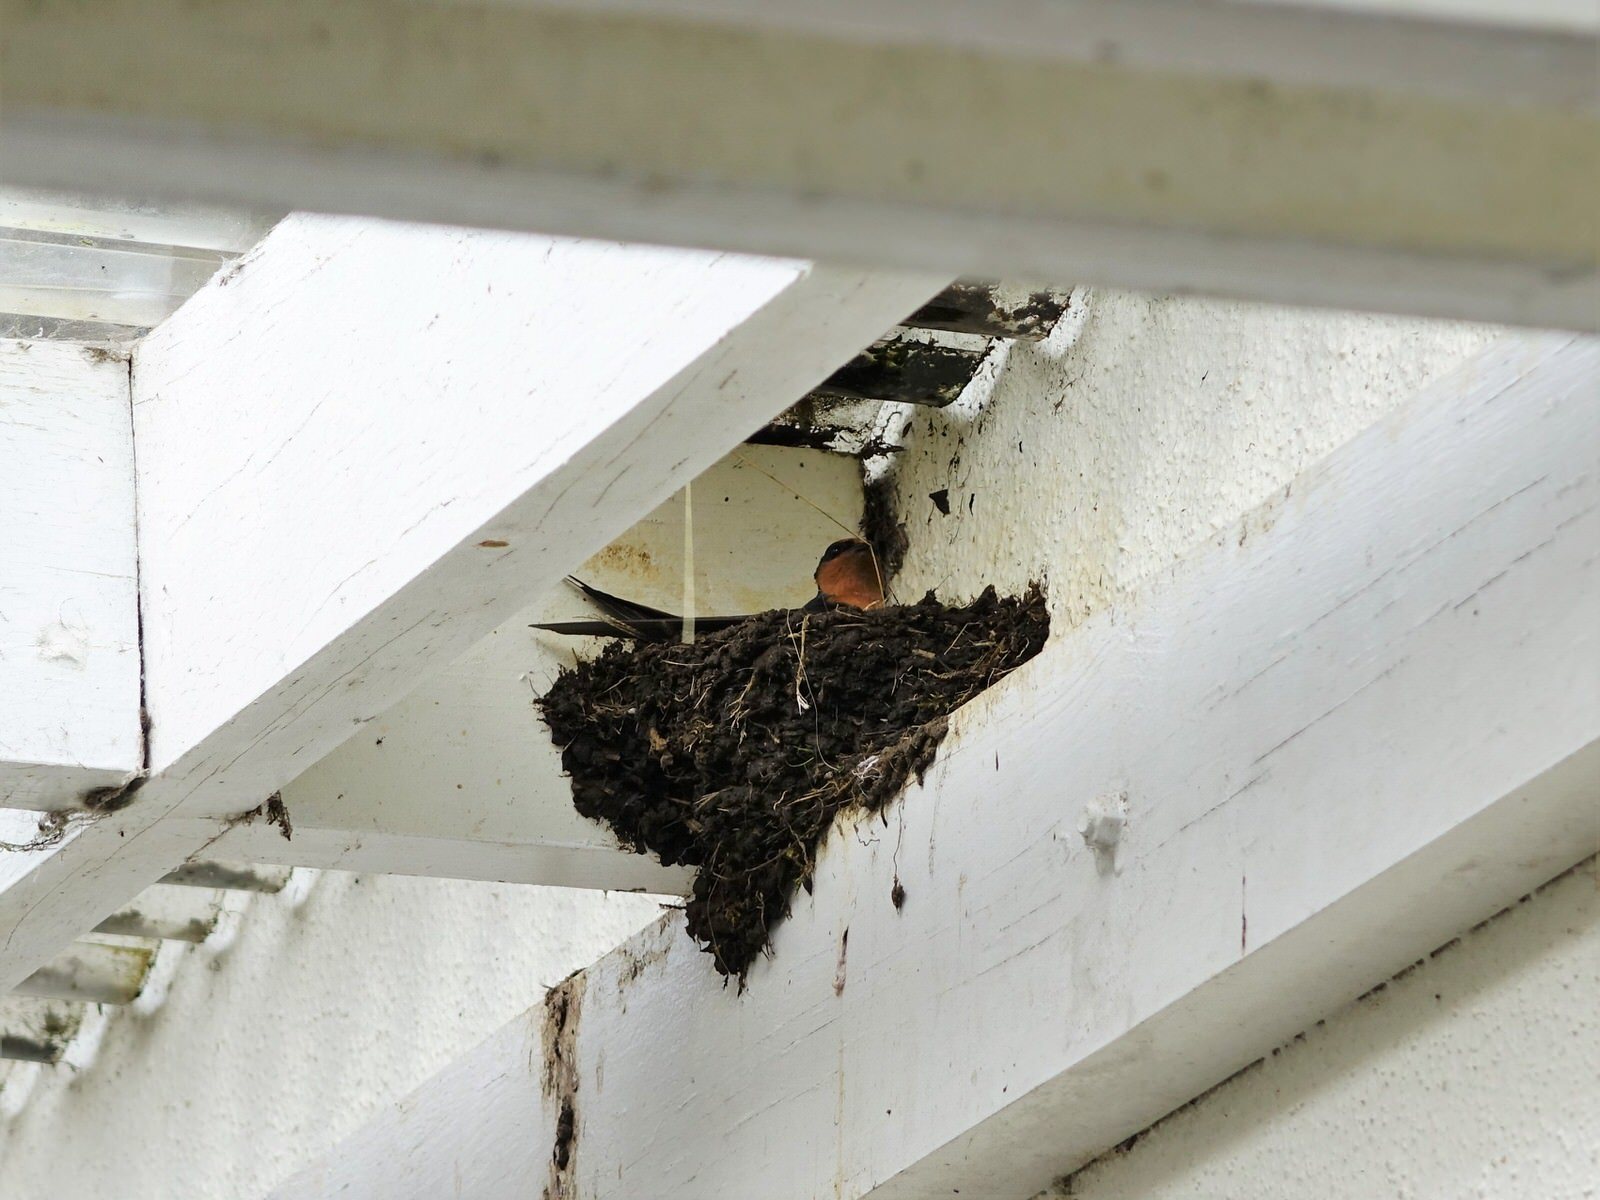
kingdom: Animalia
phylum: Chordata
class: Aves
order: Passeriformes
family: Hirundinidae
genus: Hirundo
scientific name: Hirundo neoxena
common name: Welcome swallow
